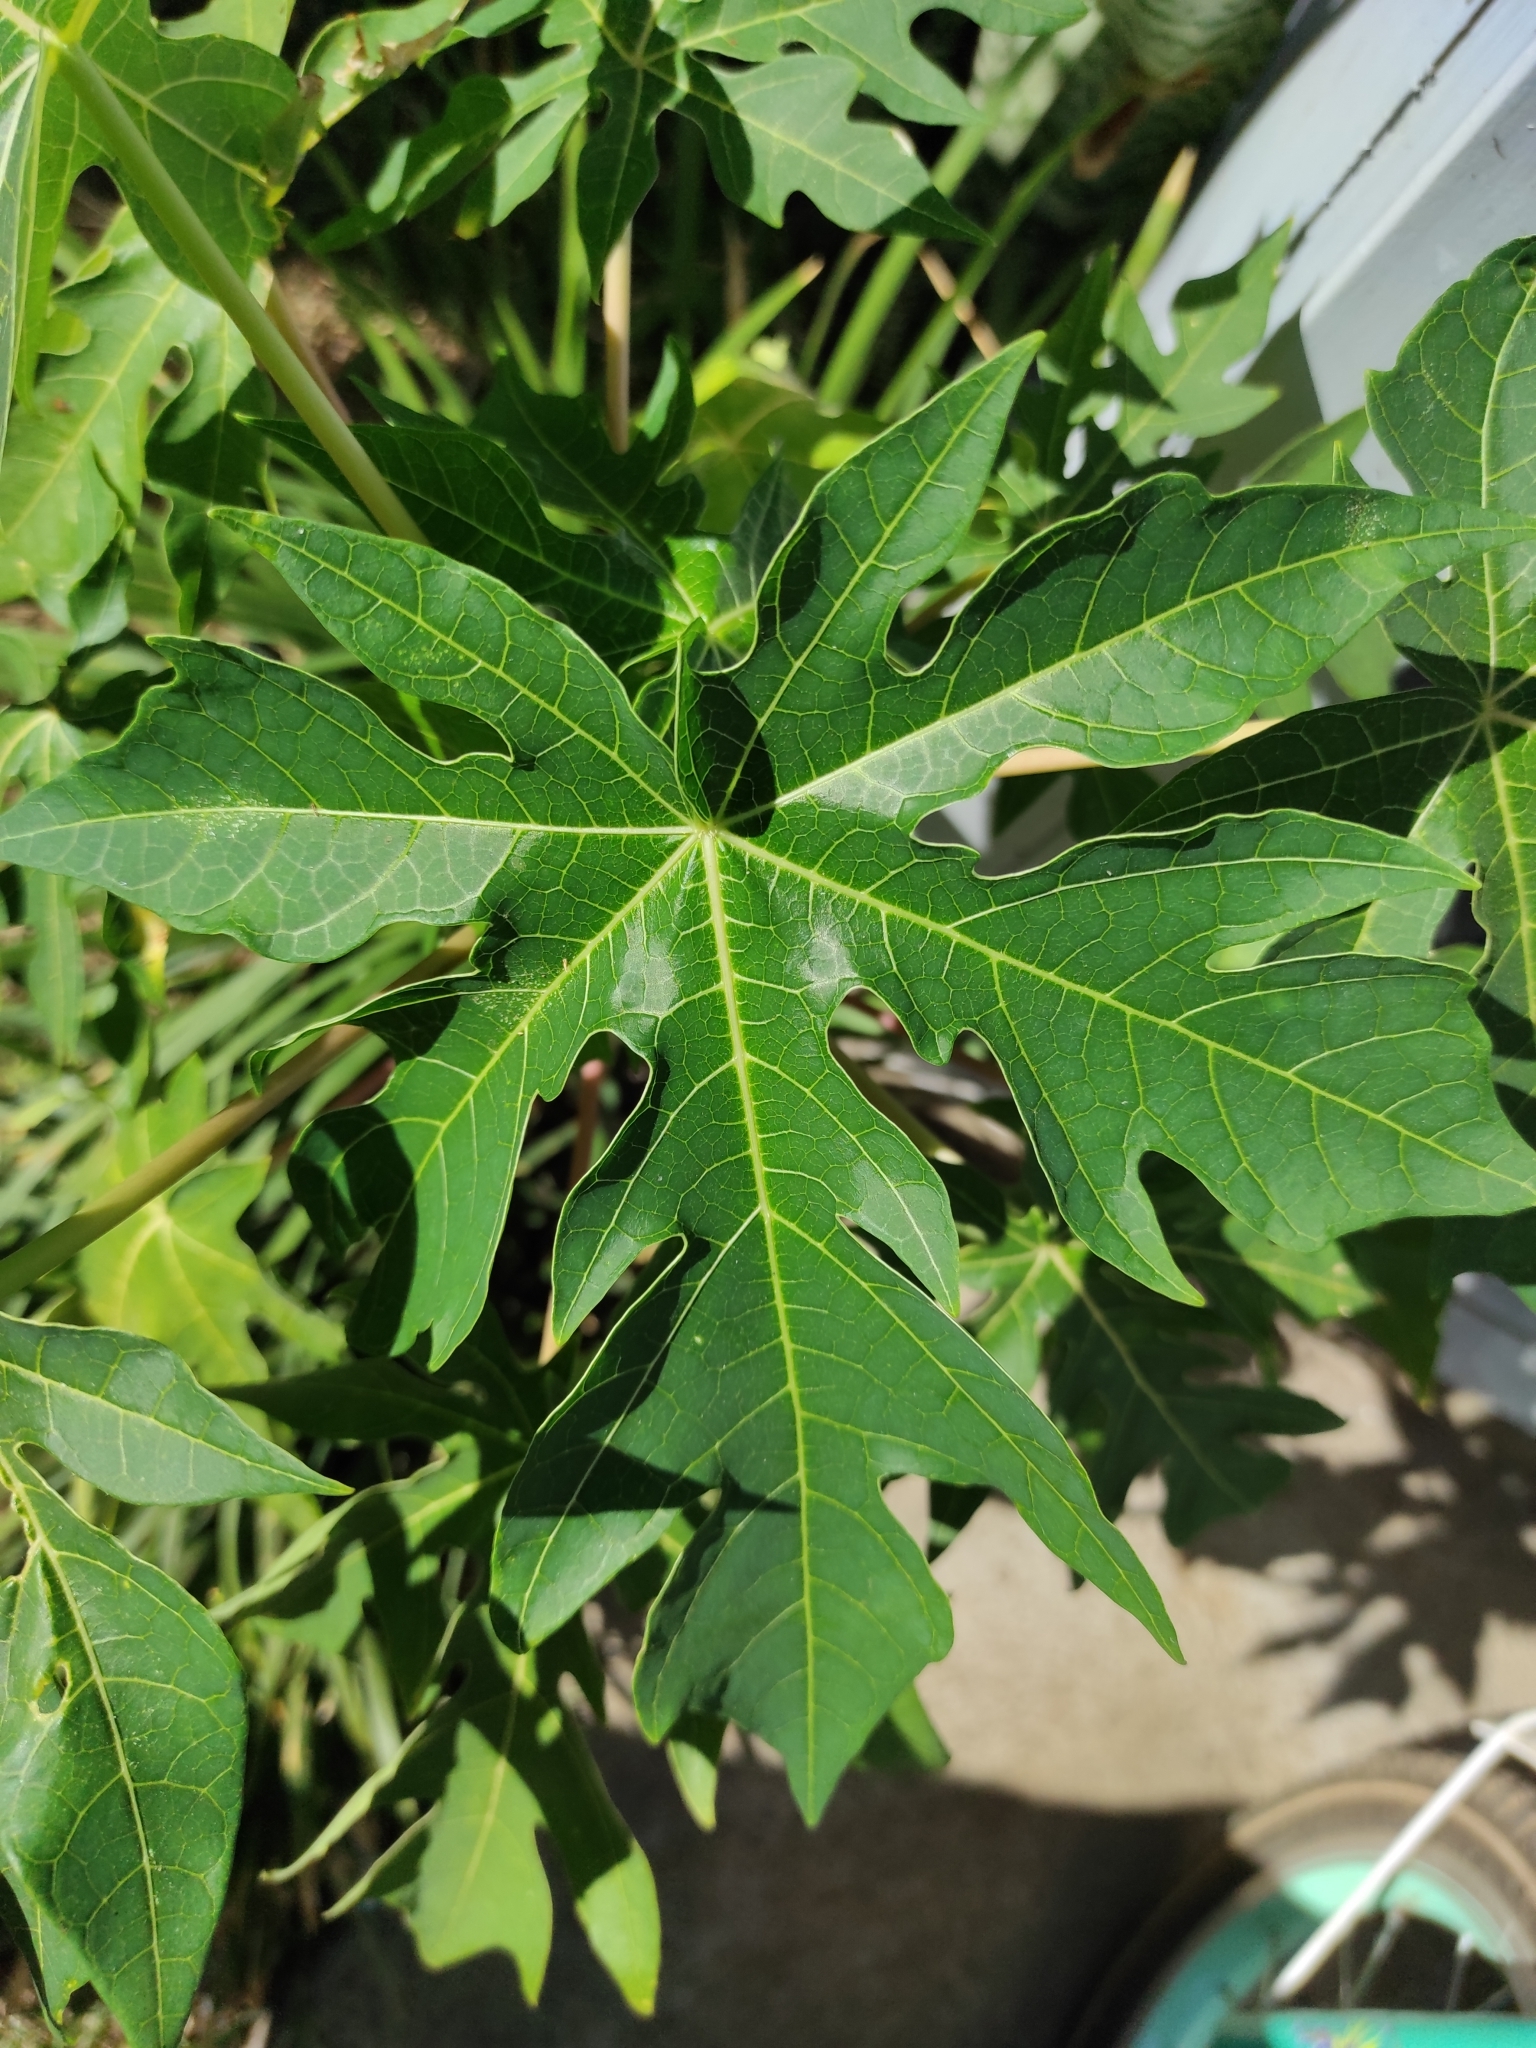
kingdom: Plantae
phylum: Tracheophyta
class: Magnoliopsida
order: Brassicales
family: Caricaceae
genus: Carica
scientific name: Carica papaya
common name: Papaya
